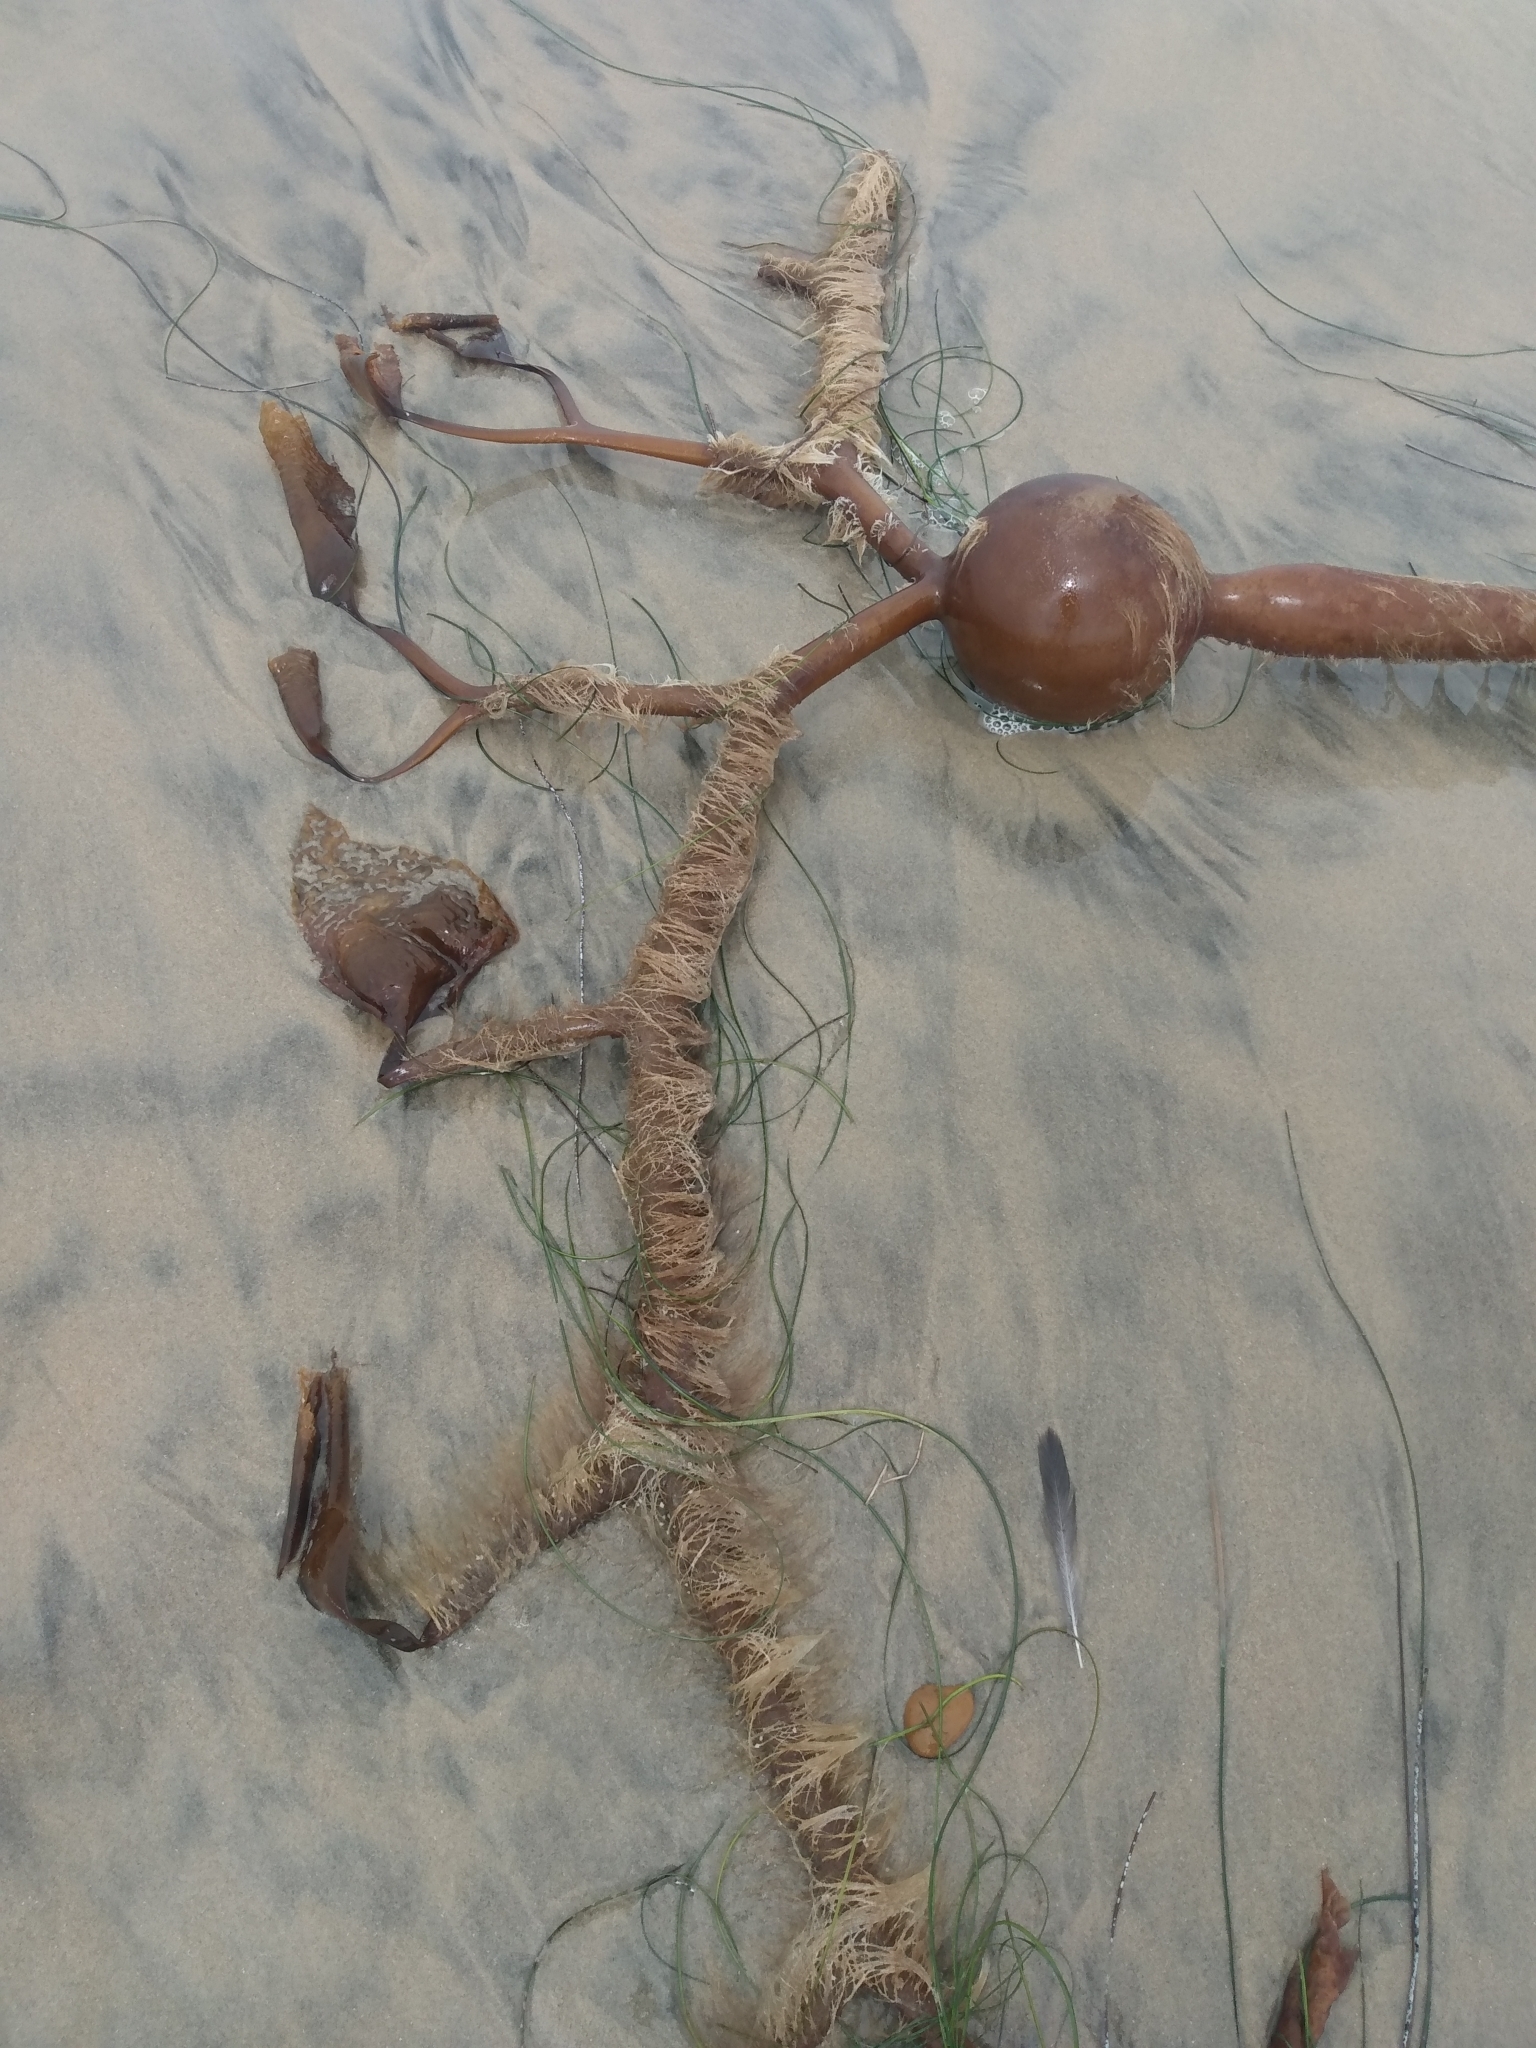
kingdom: Chromista
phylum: Ochrophyta
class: Phaeophyceae
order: Laminariales
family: Laminariaceae
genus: Pelagophycus
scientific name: Pelagophycus porra
